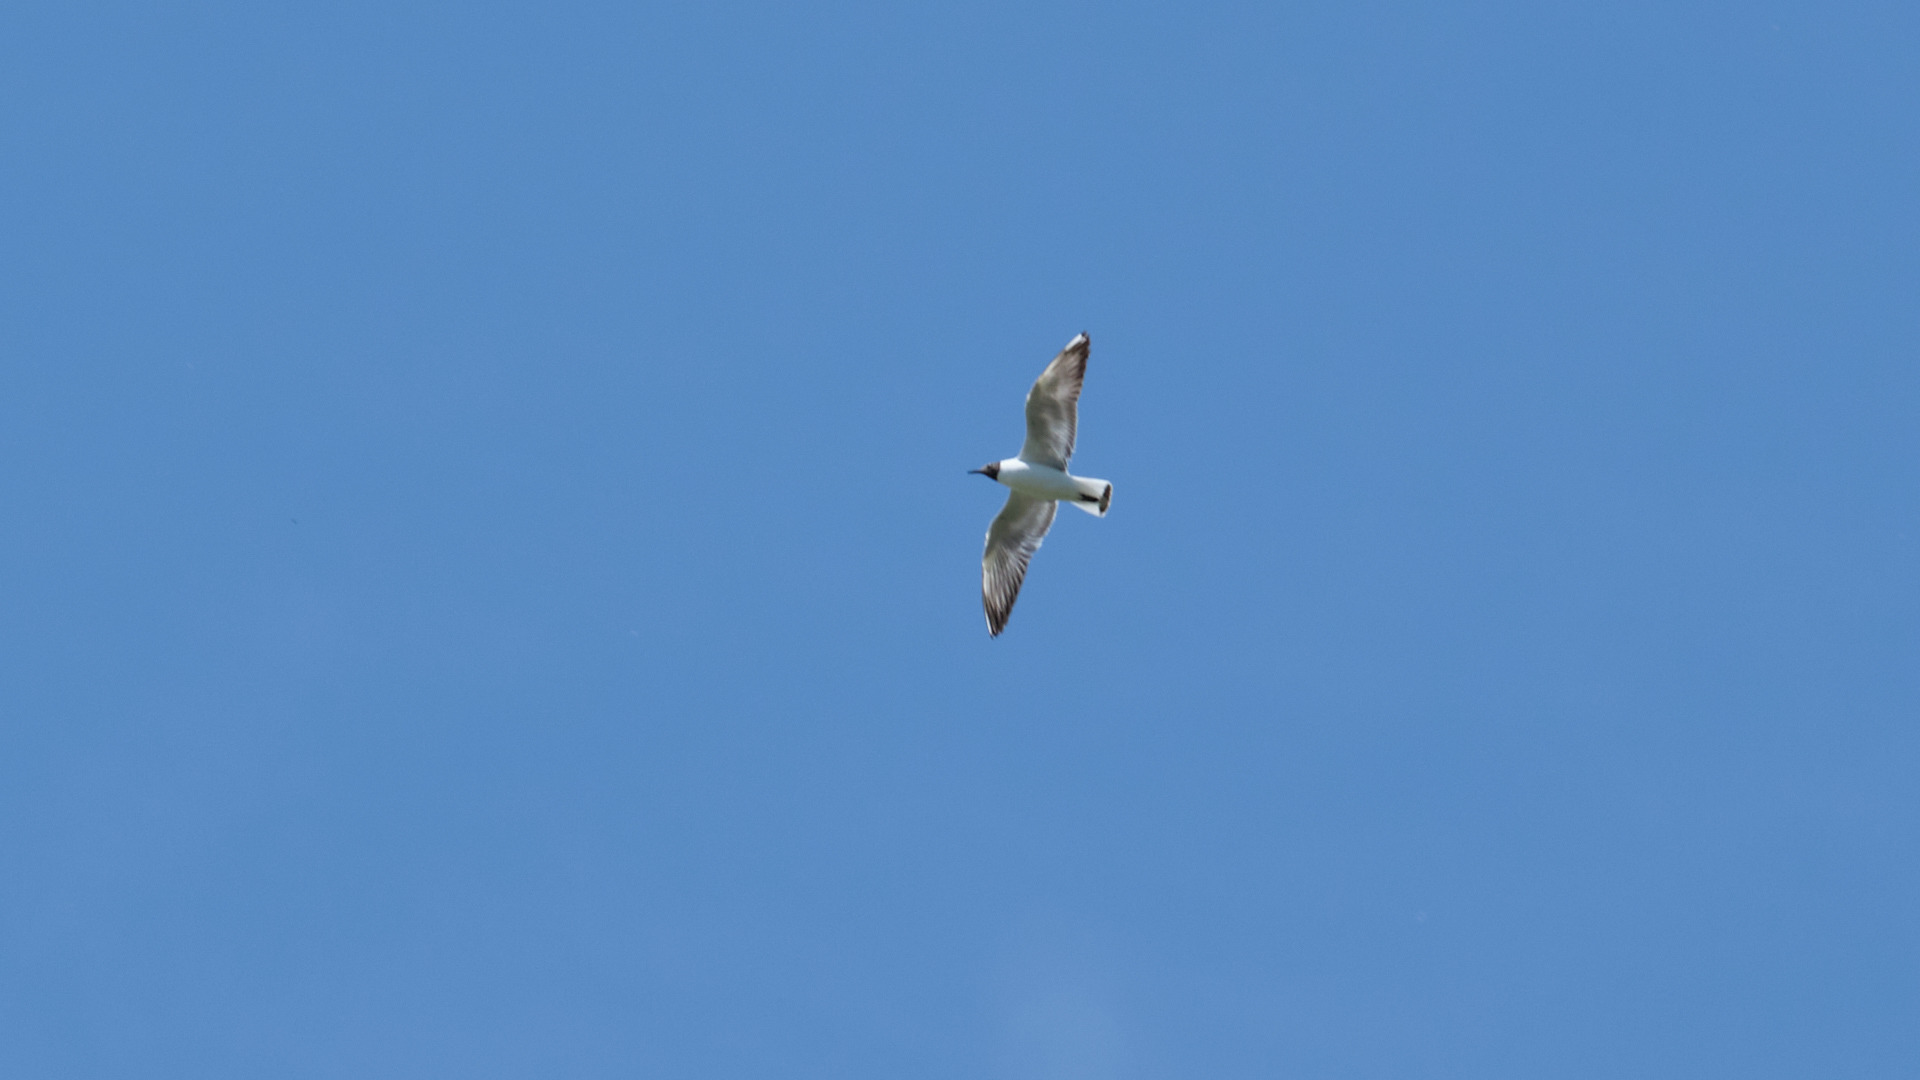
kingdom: Animalia
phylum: Chordata
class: Aves
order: Charadriiformes
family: Laridae
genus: Chroicocephalus
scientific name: Chroicocephalus ridibundus
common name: Black-headed gull
